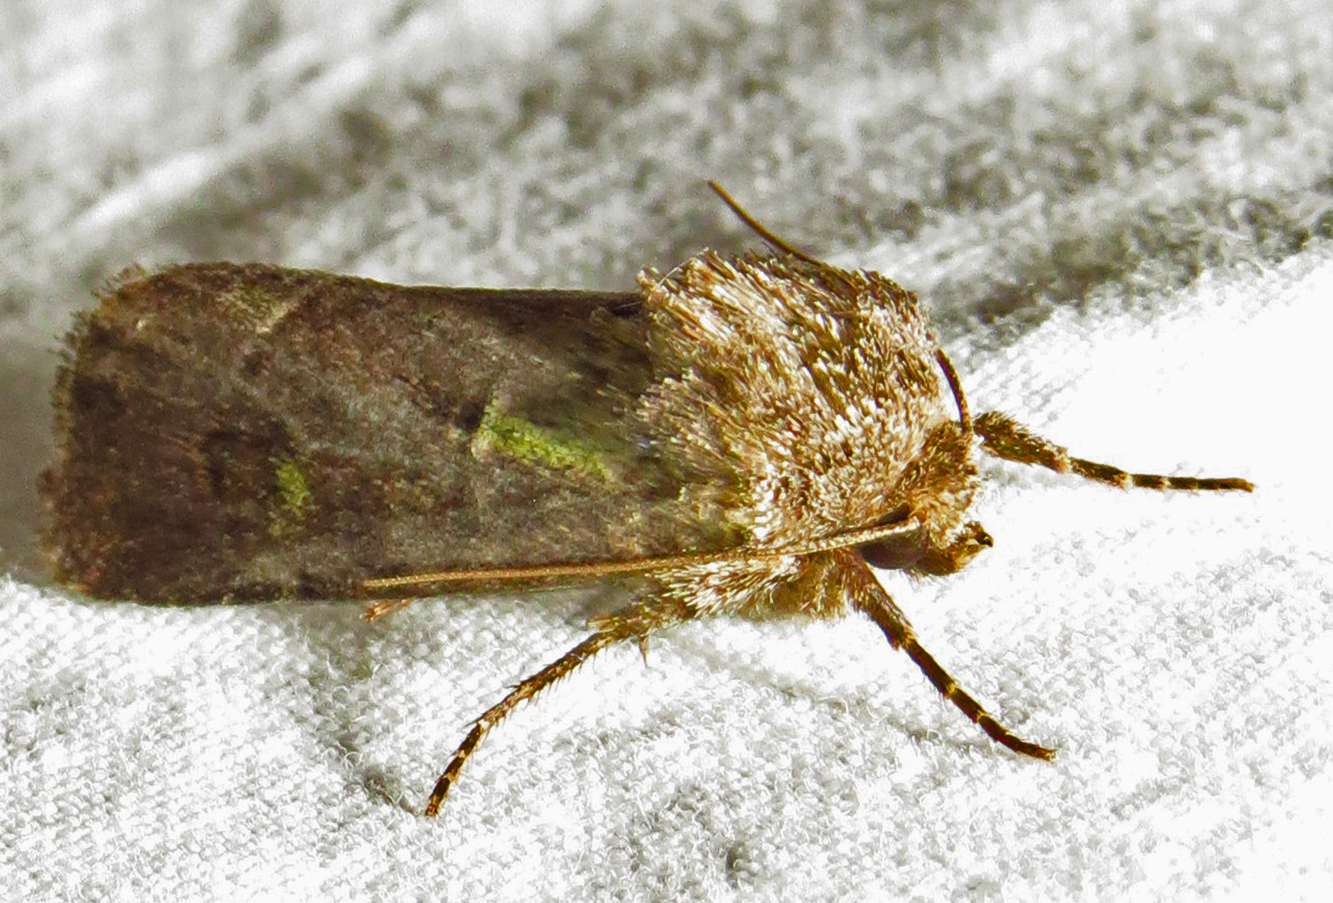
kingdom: Animalia
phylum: Arthropoda
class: Insecta
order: Lepidoptera
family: Noctuidae
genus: Lacinipolia
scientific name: Lacinipolia renigera
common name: Kidney-spotted minor
